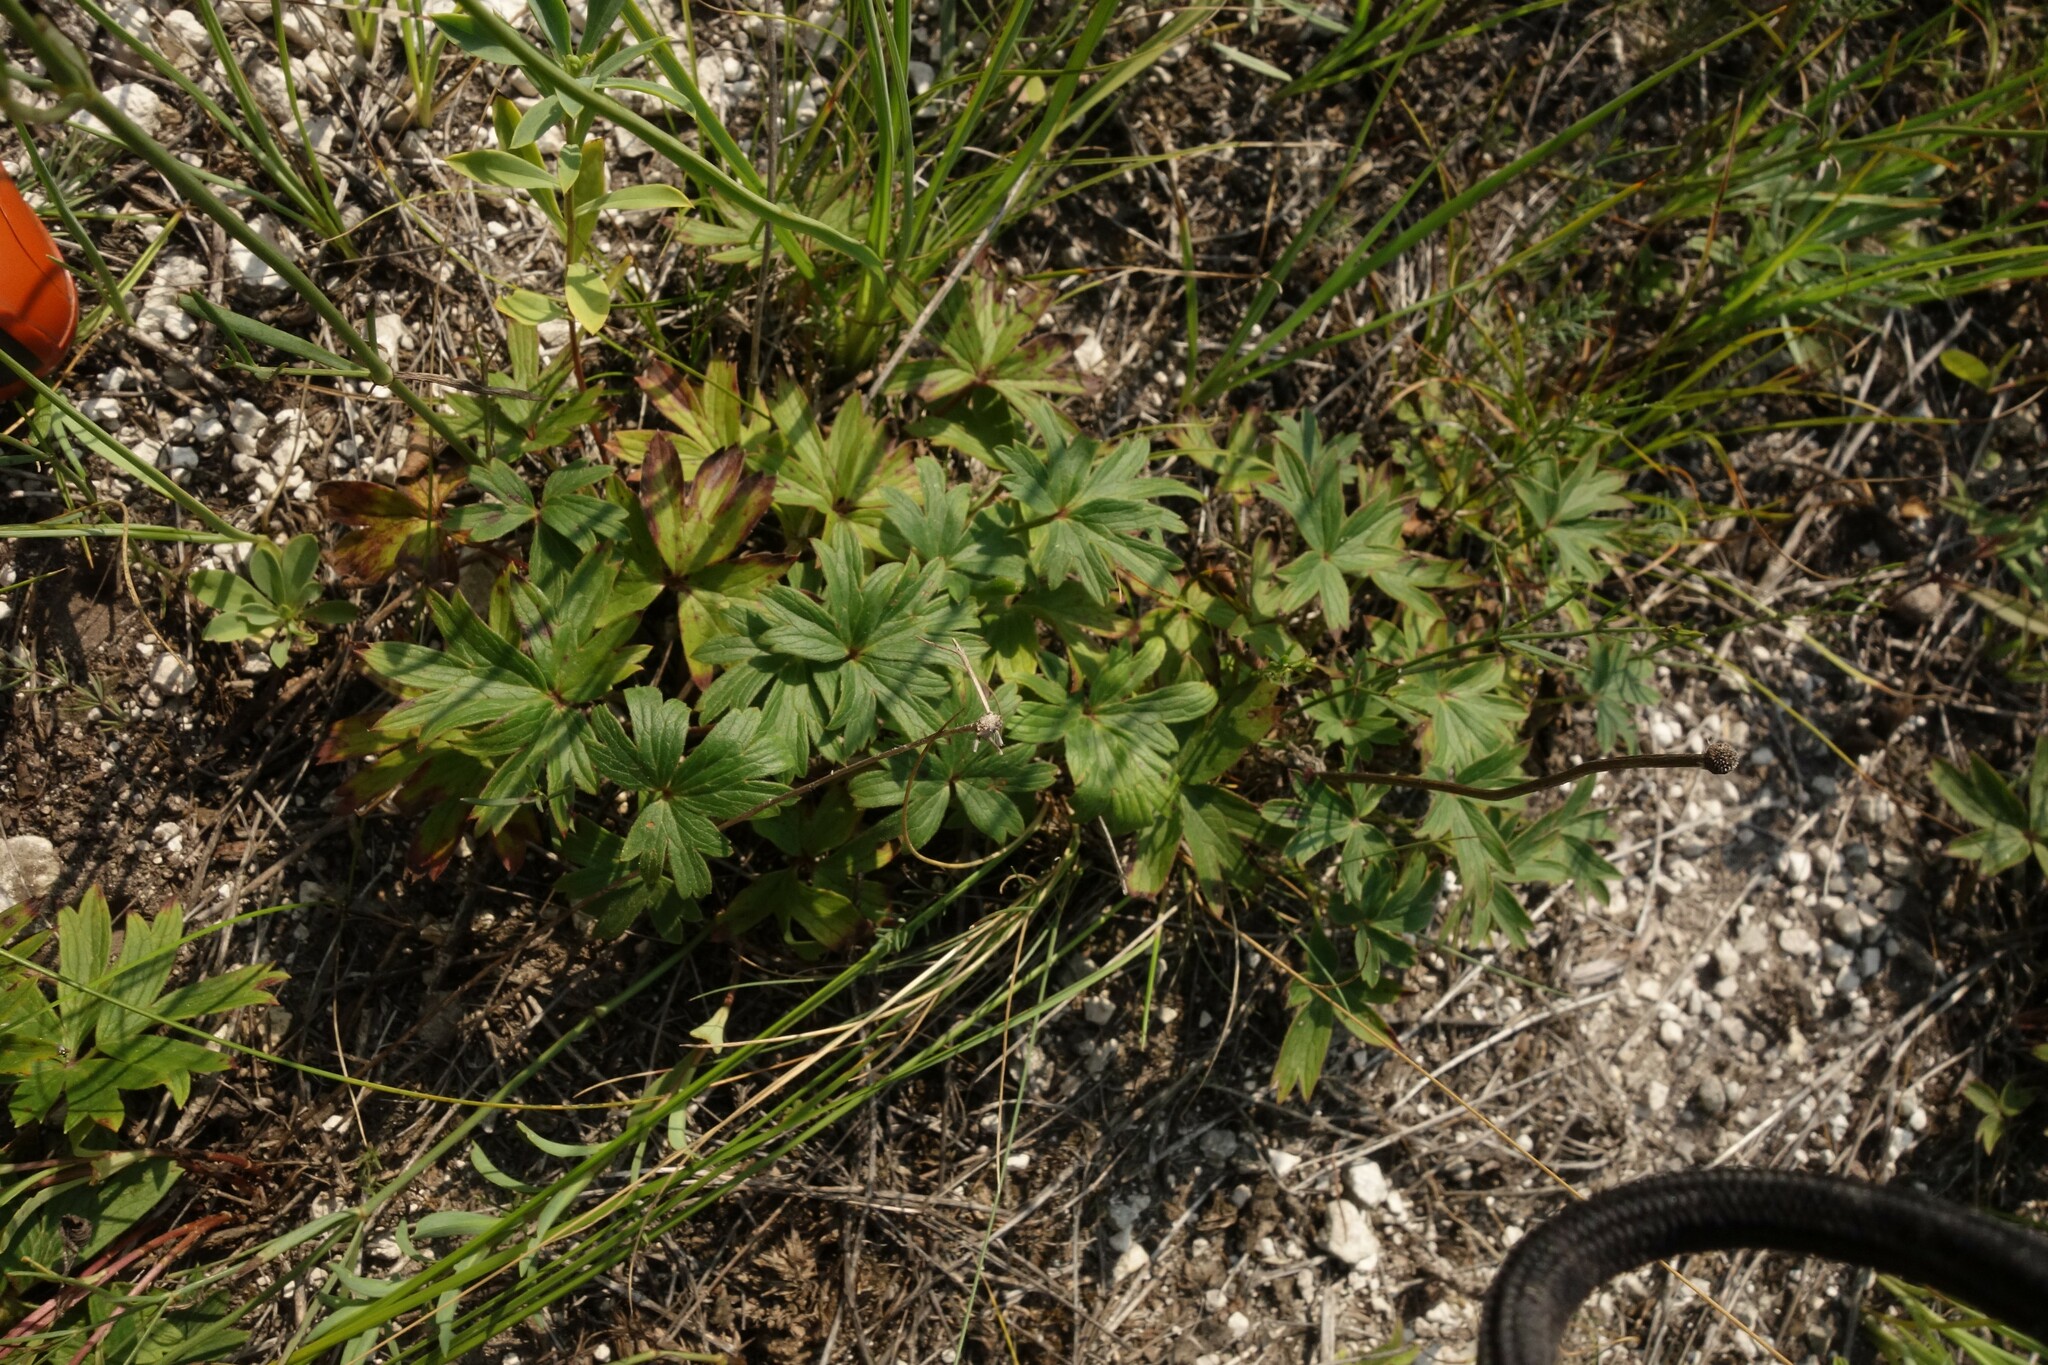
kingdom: Plantae
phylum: Tracheophyta
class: Magnoliopsida
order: Ranunculales
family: Ranunculaceae
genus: Anemone
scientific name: Anemone sylvestris
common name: Snowdrop anemone
